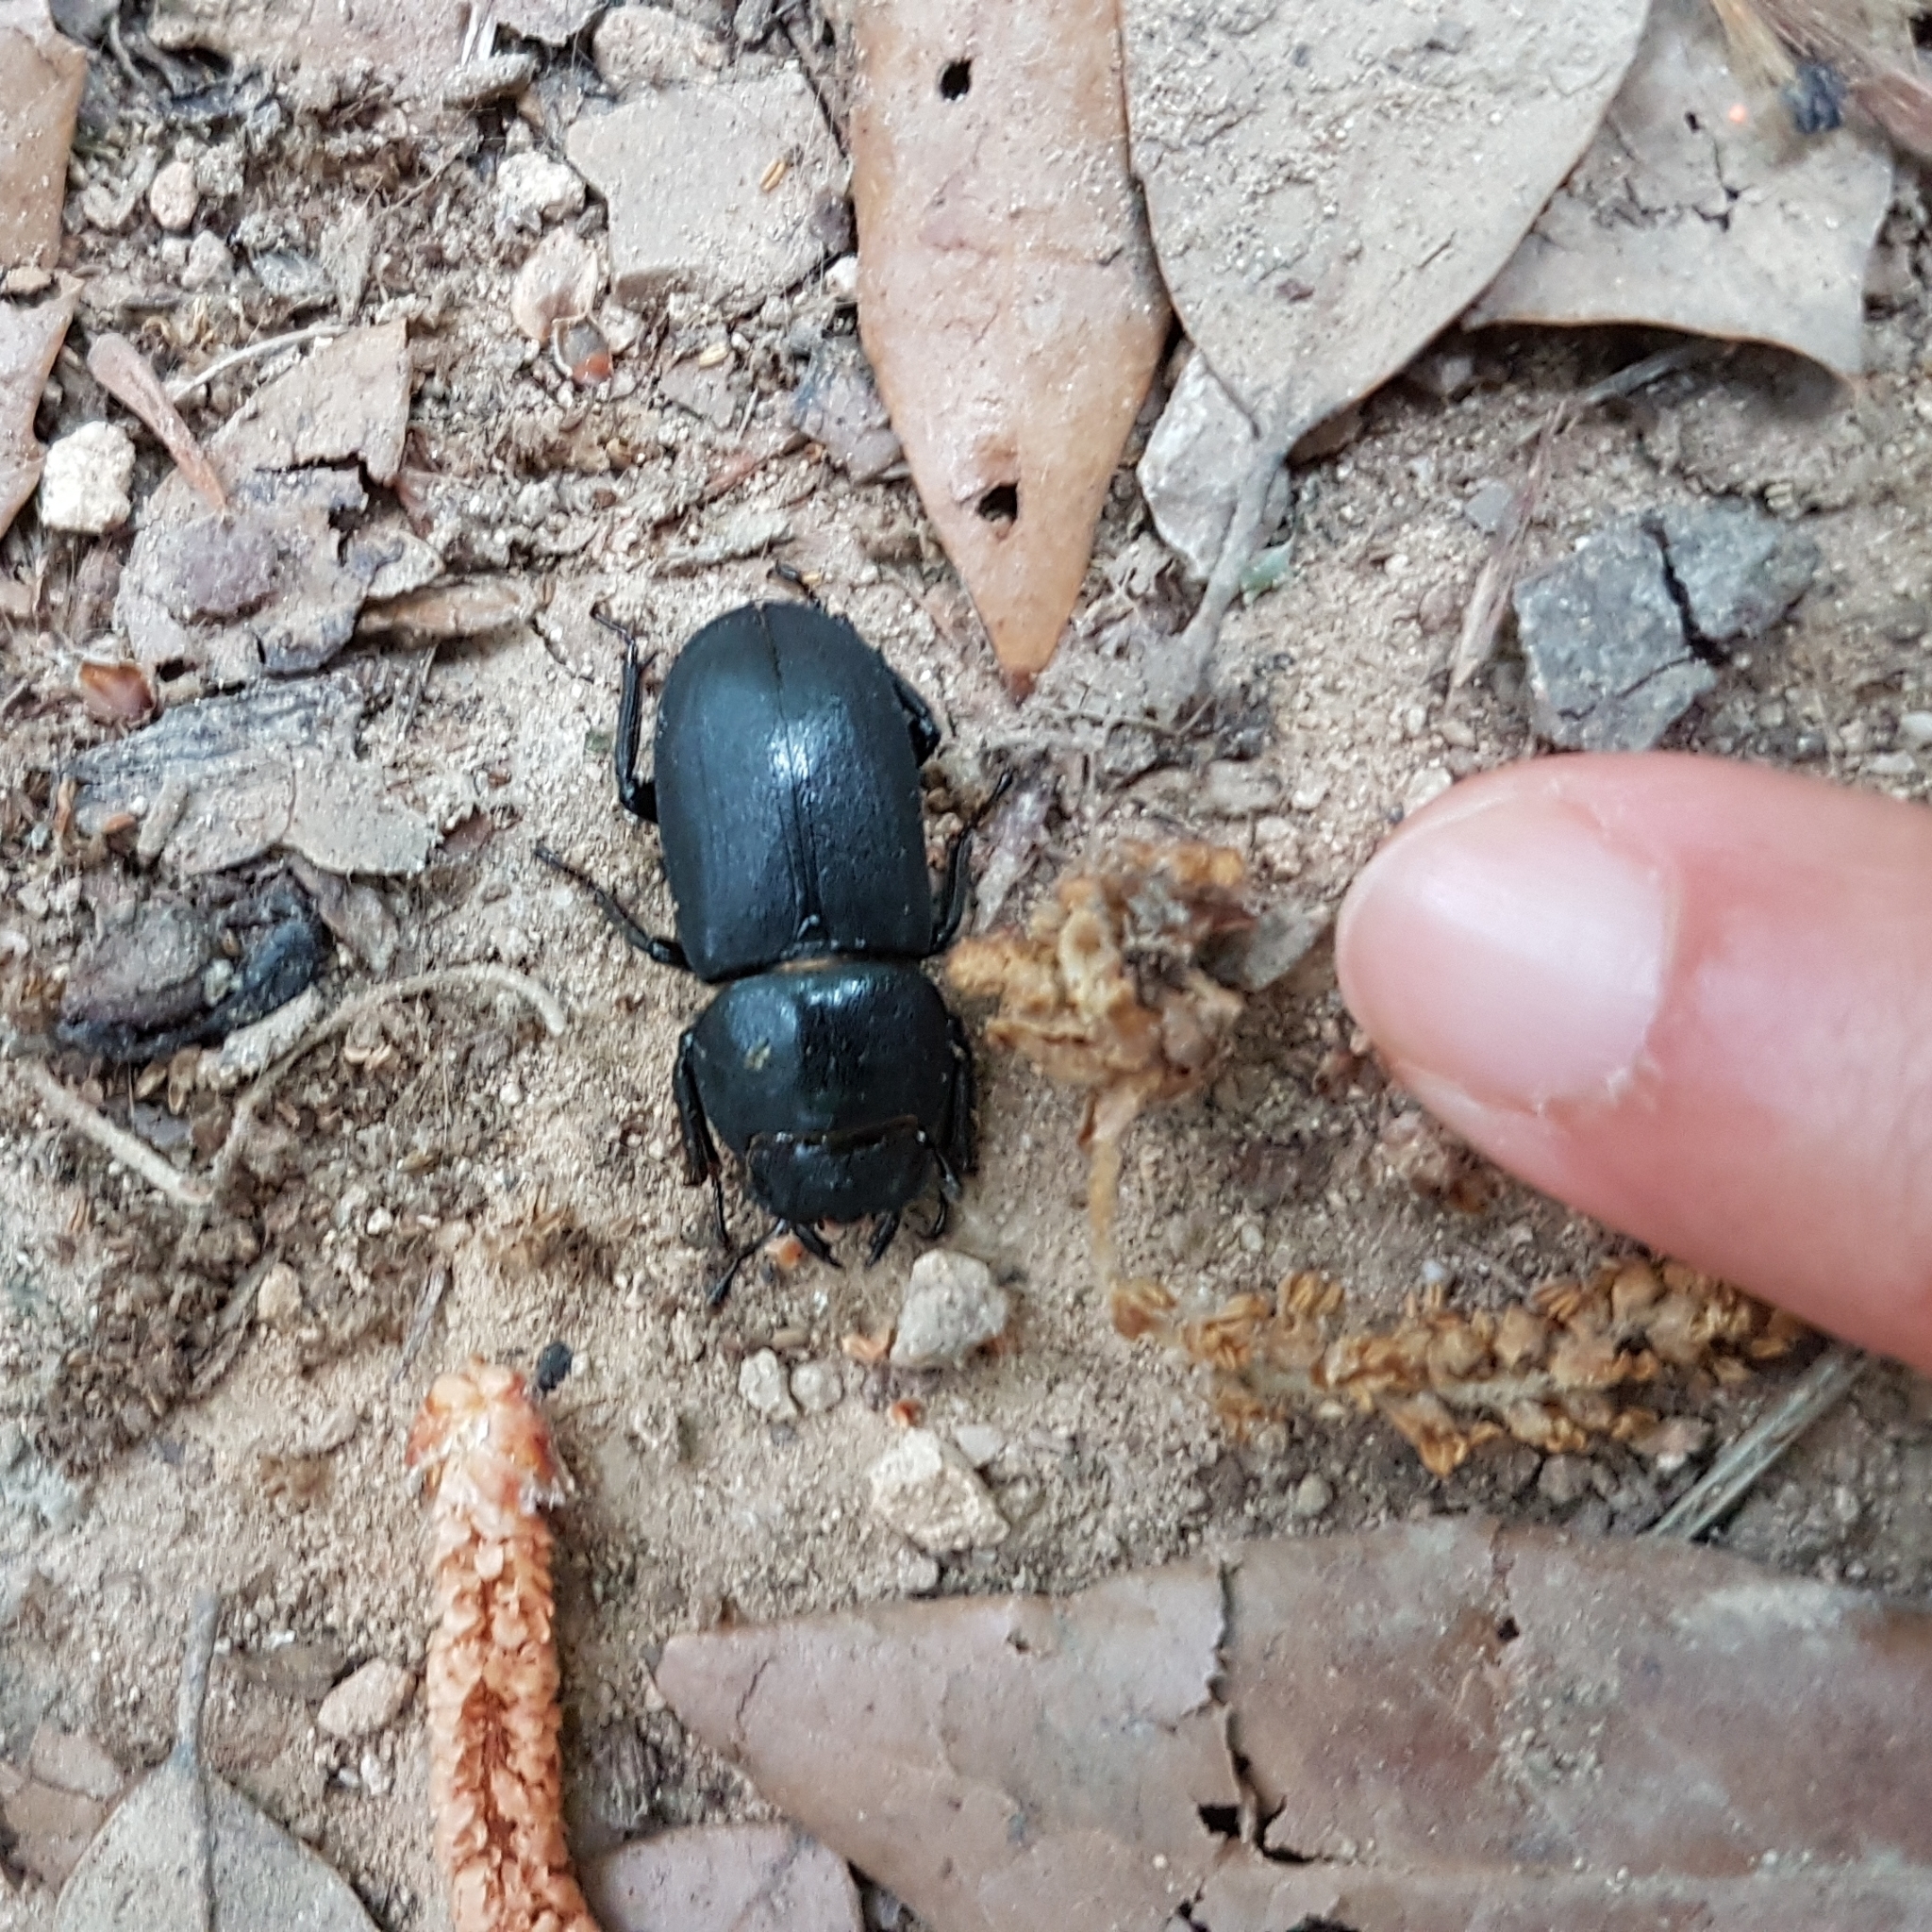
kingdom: Animalia
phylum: Arthropoda
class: Insecta
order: Coleoptera
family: Lucanidae
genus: Dorcus
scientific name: Dorcus parallelipipedus
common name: Lesser stag beetle
